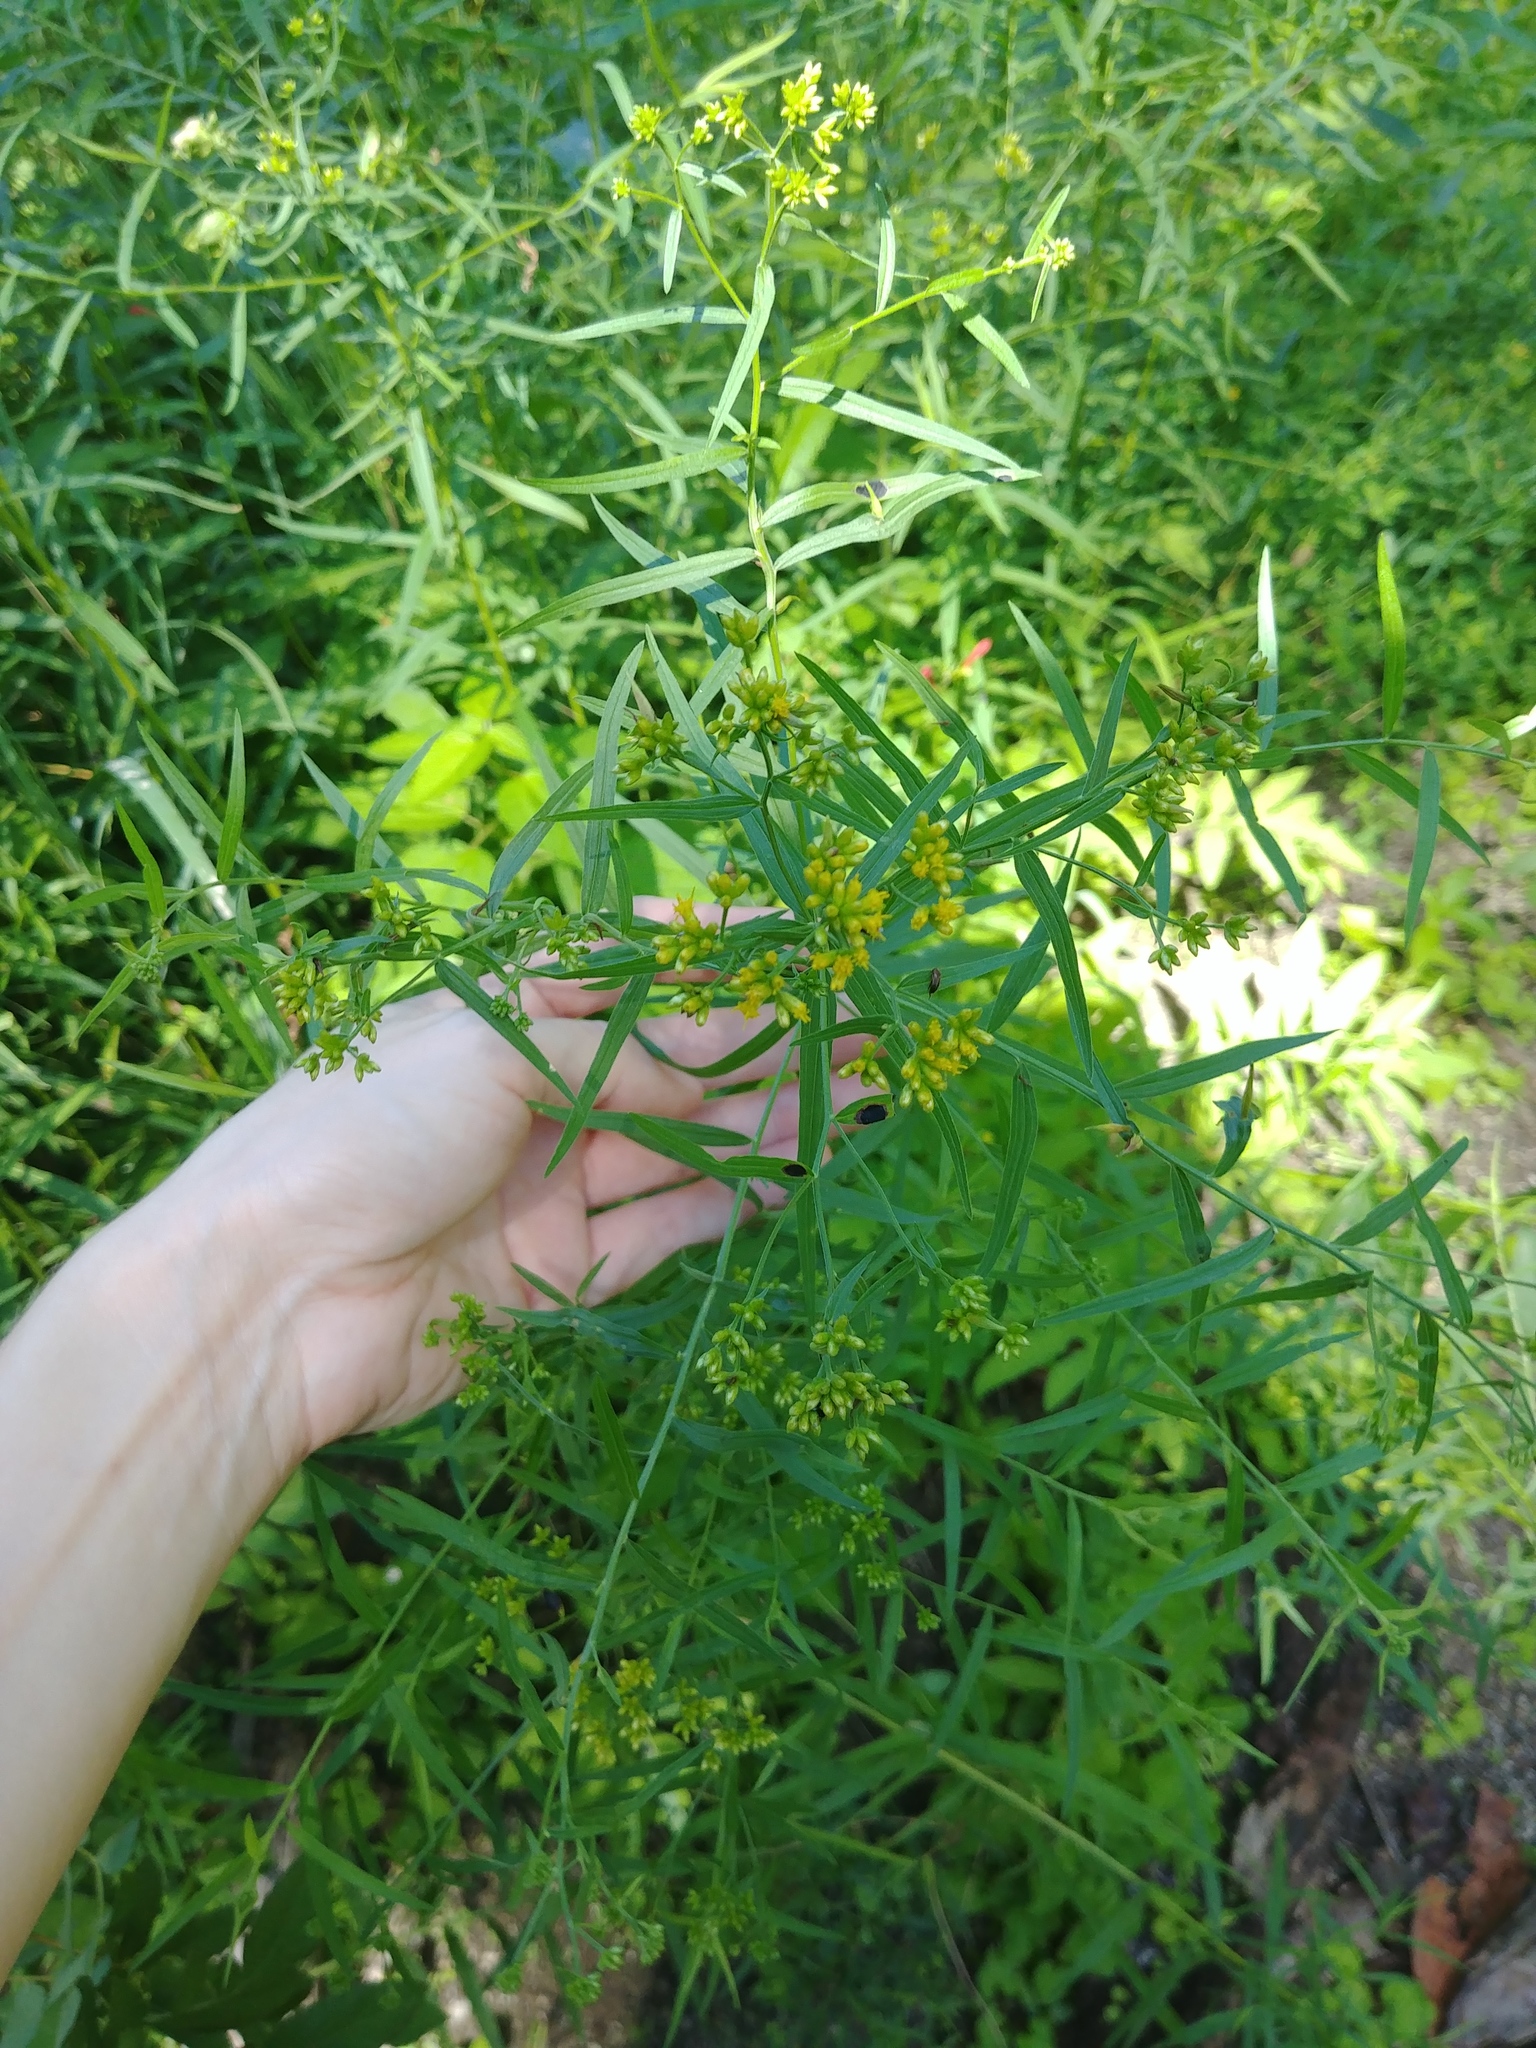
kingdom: Plantae
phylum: Tracheophyta
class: Magnoliopsida
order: Asterales
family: Asteraceae
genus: Euthamia
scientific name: Euthamia graminifolia
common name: Common goldentop
